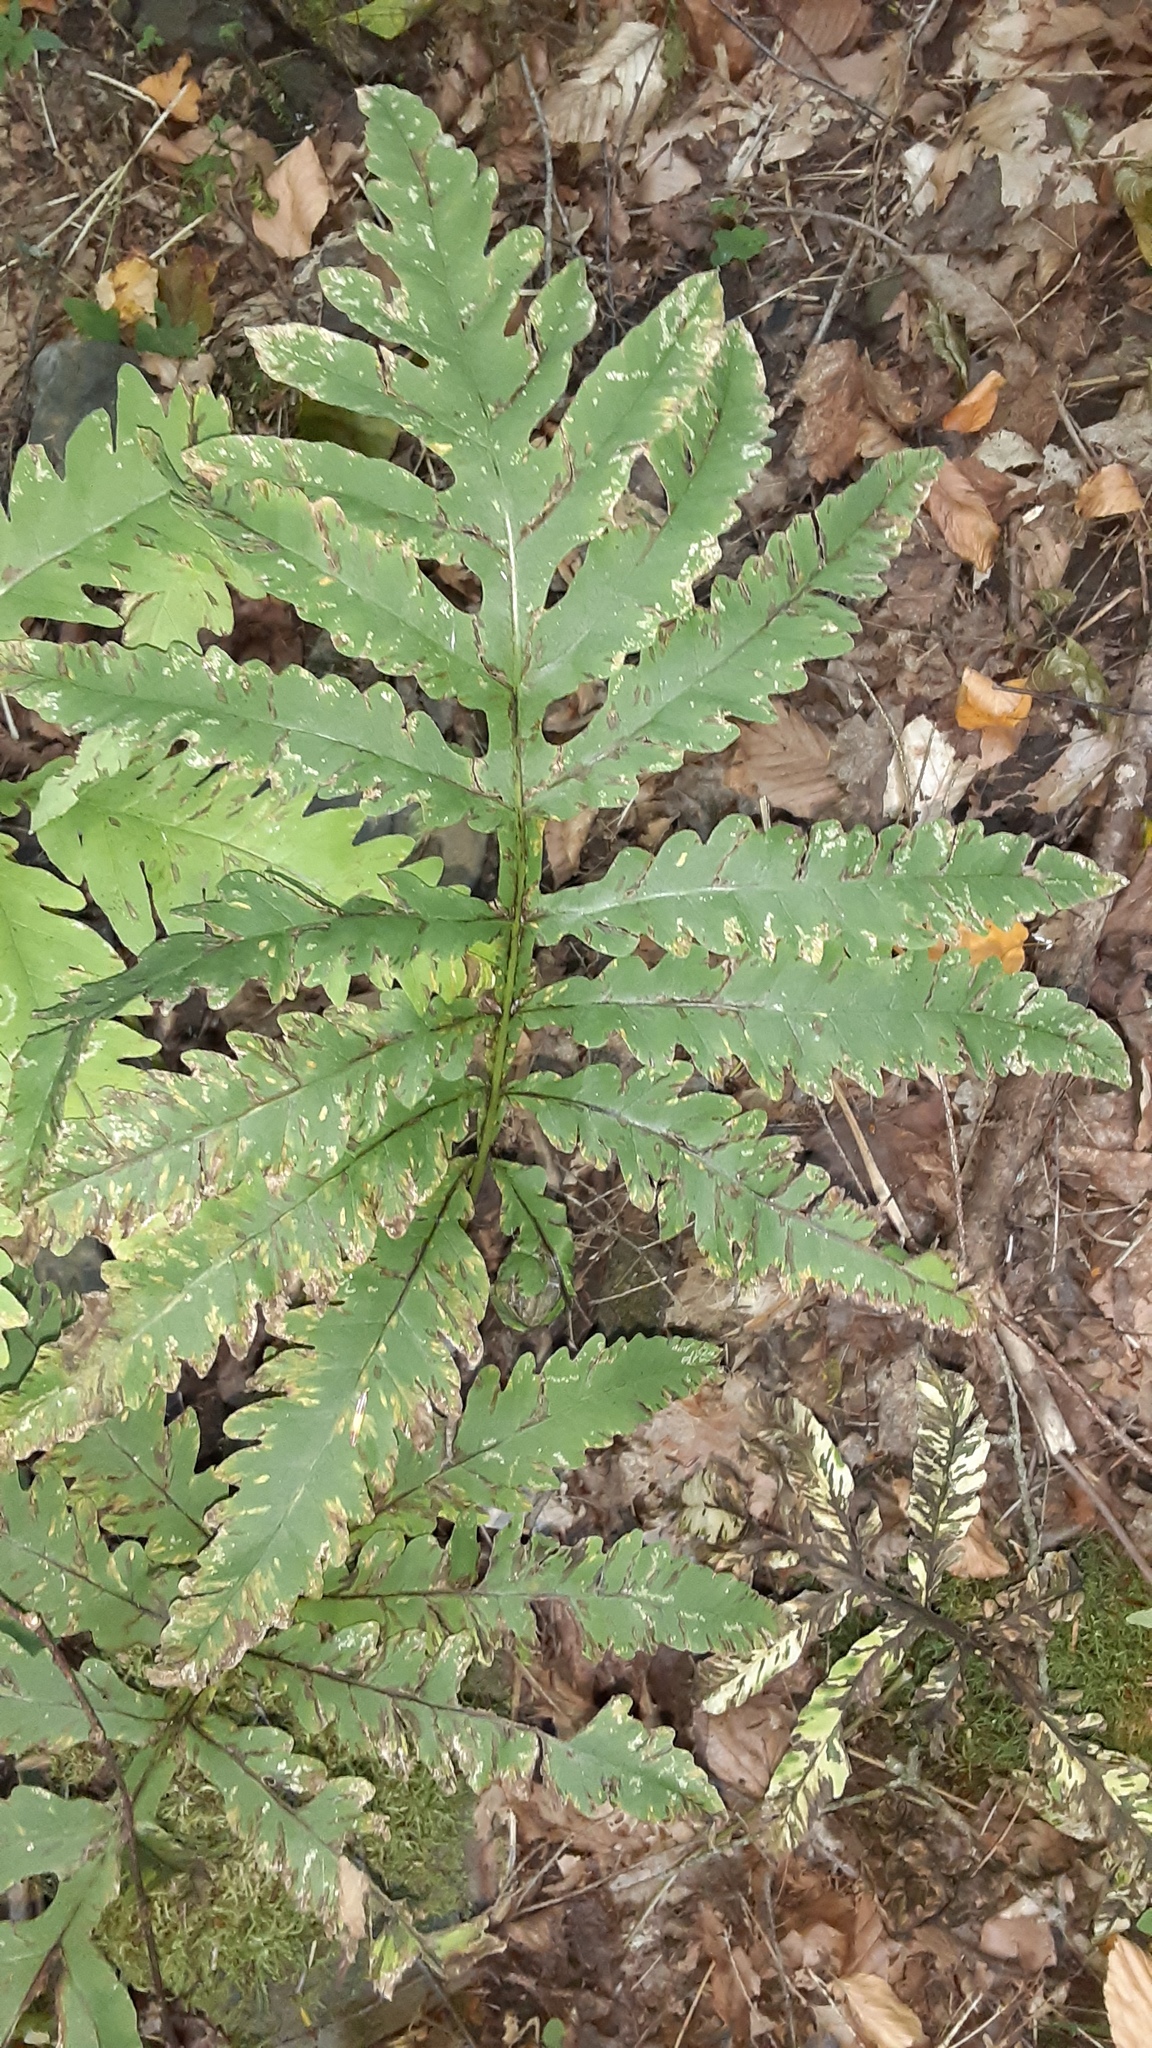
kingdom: Plantae
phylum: Tracheophyta
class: Polypodiopsida
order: Polypodiales
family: Onocleaceae
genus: Onoclea
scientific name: Onoclea sensibilis
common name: Sensitive fern
